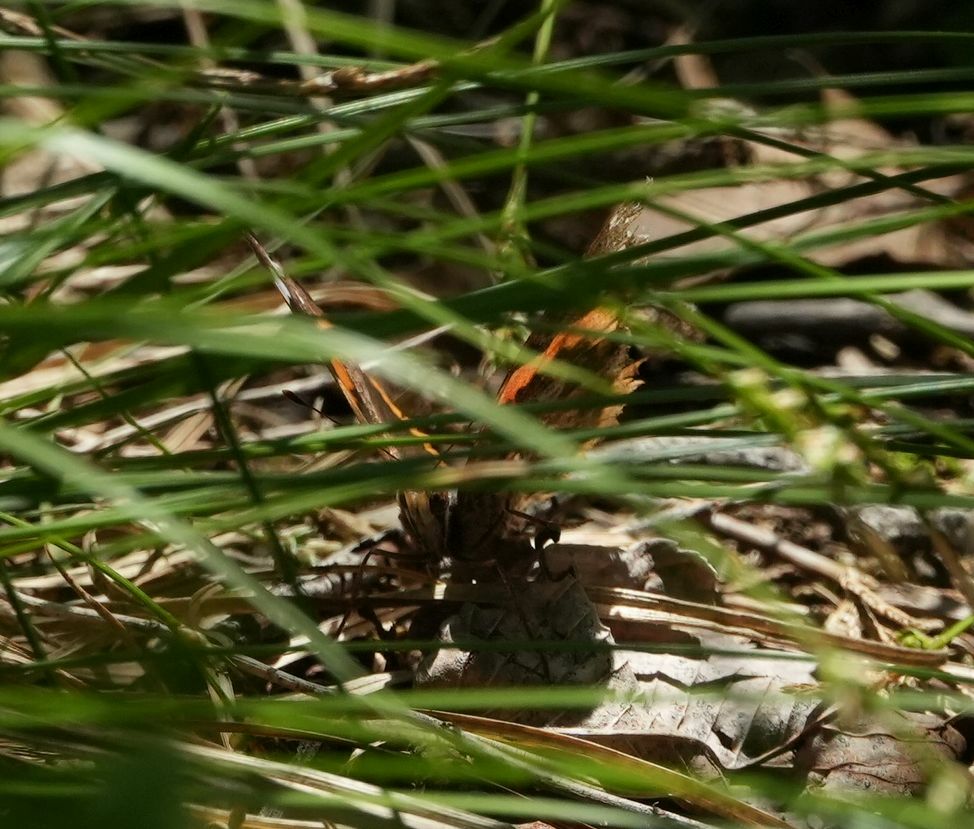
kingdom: Animalia
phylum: Arthropoda
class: Insecta
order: Lepidoptera
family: Nymphalidae
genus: Vanessa
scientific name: Vanessa atalanta
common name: Red admiral
